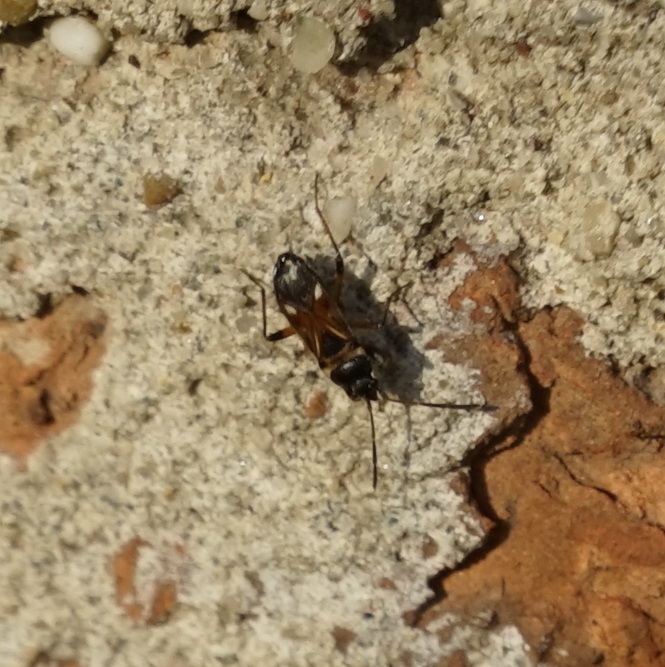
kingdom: Animalia
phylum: Arthropoda
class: Insecta
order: Hemiptera
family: Rhyparochromidae
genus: Raglius
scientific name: Raglius alboacuminatus
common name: Dirt-colored seed bug
